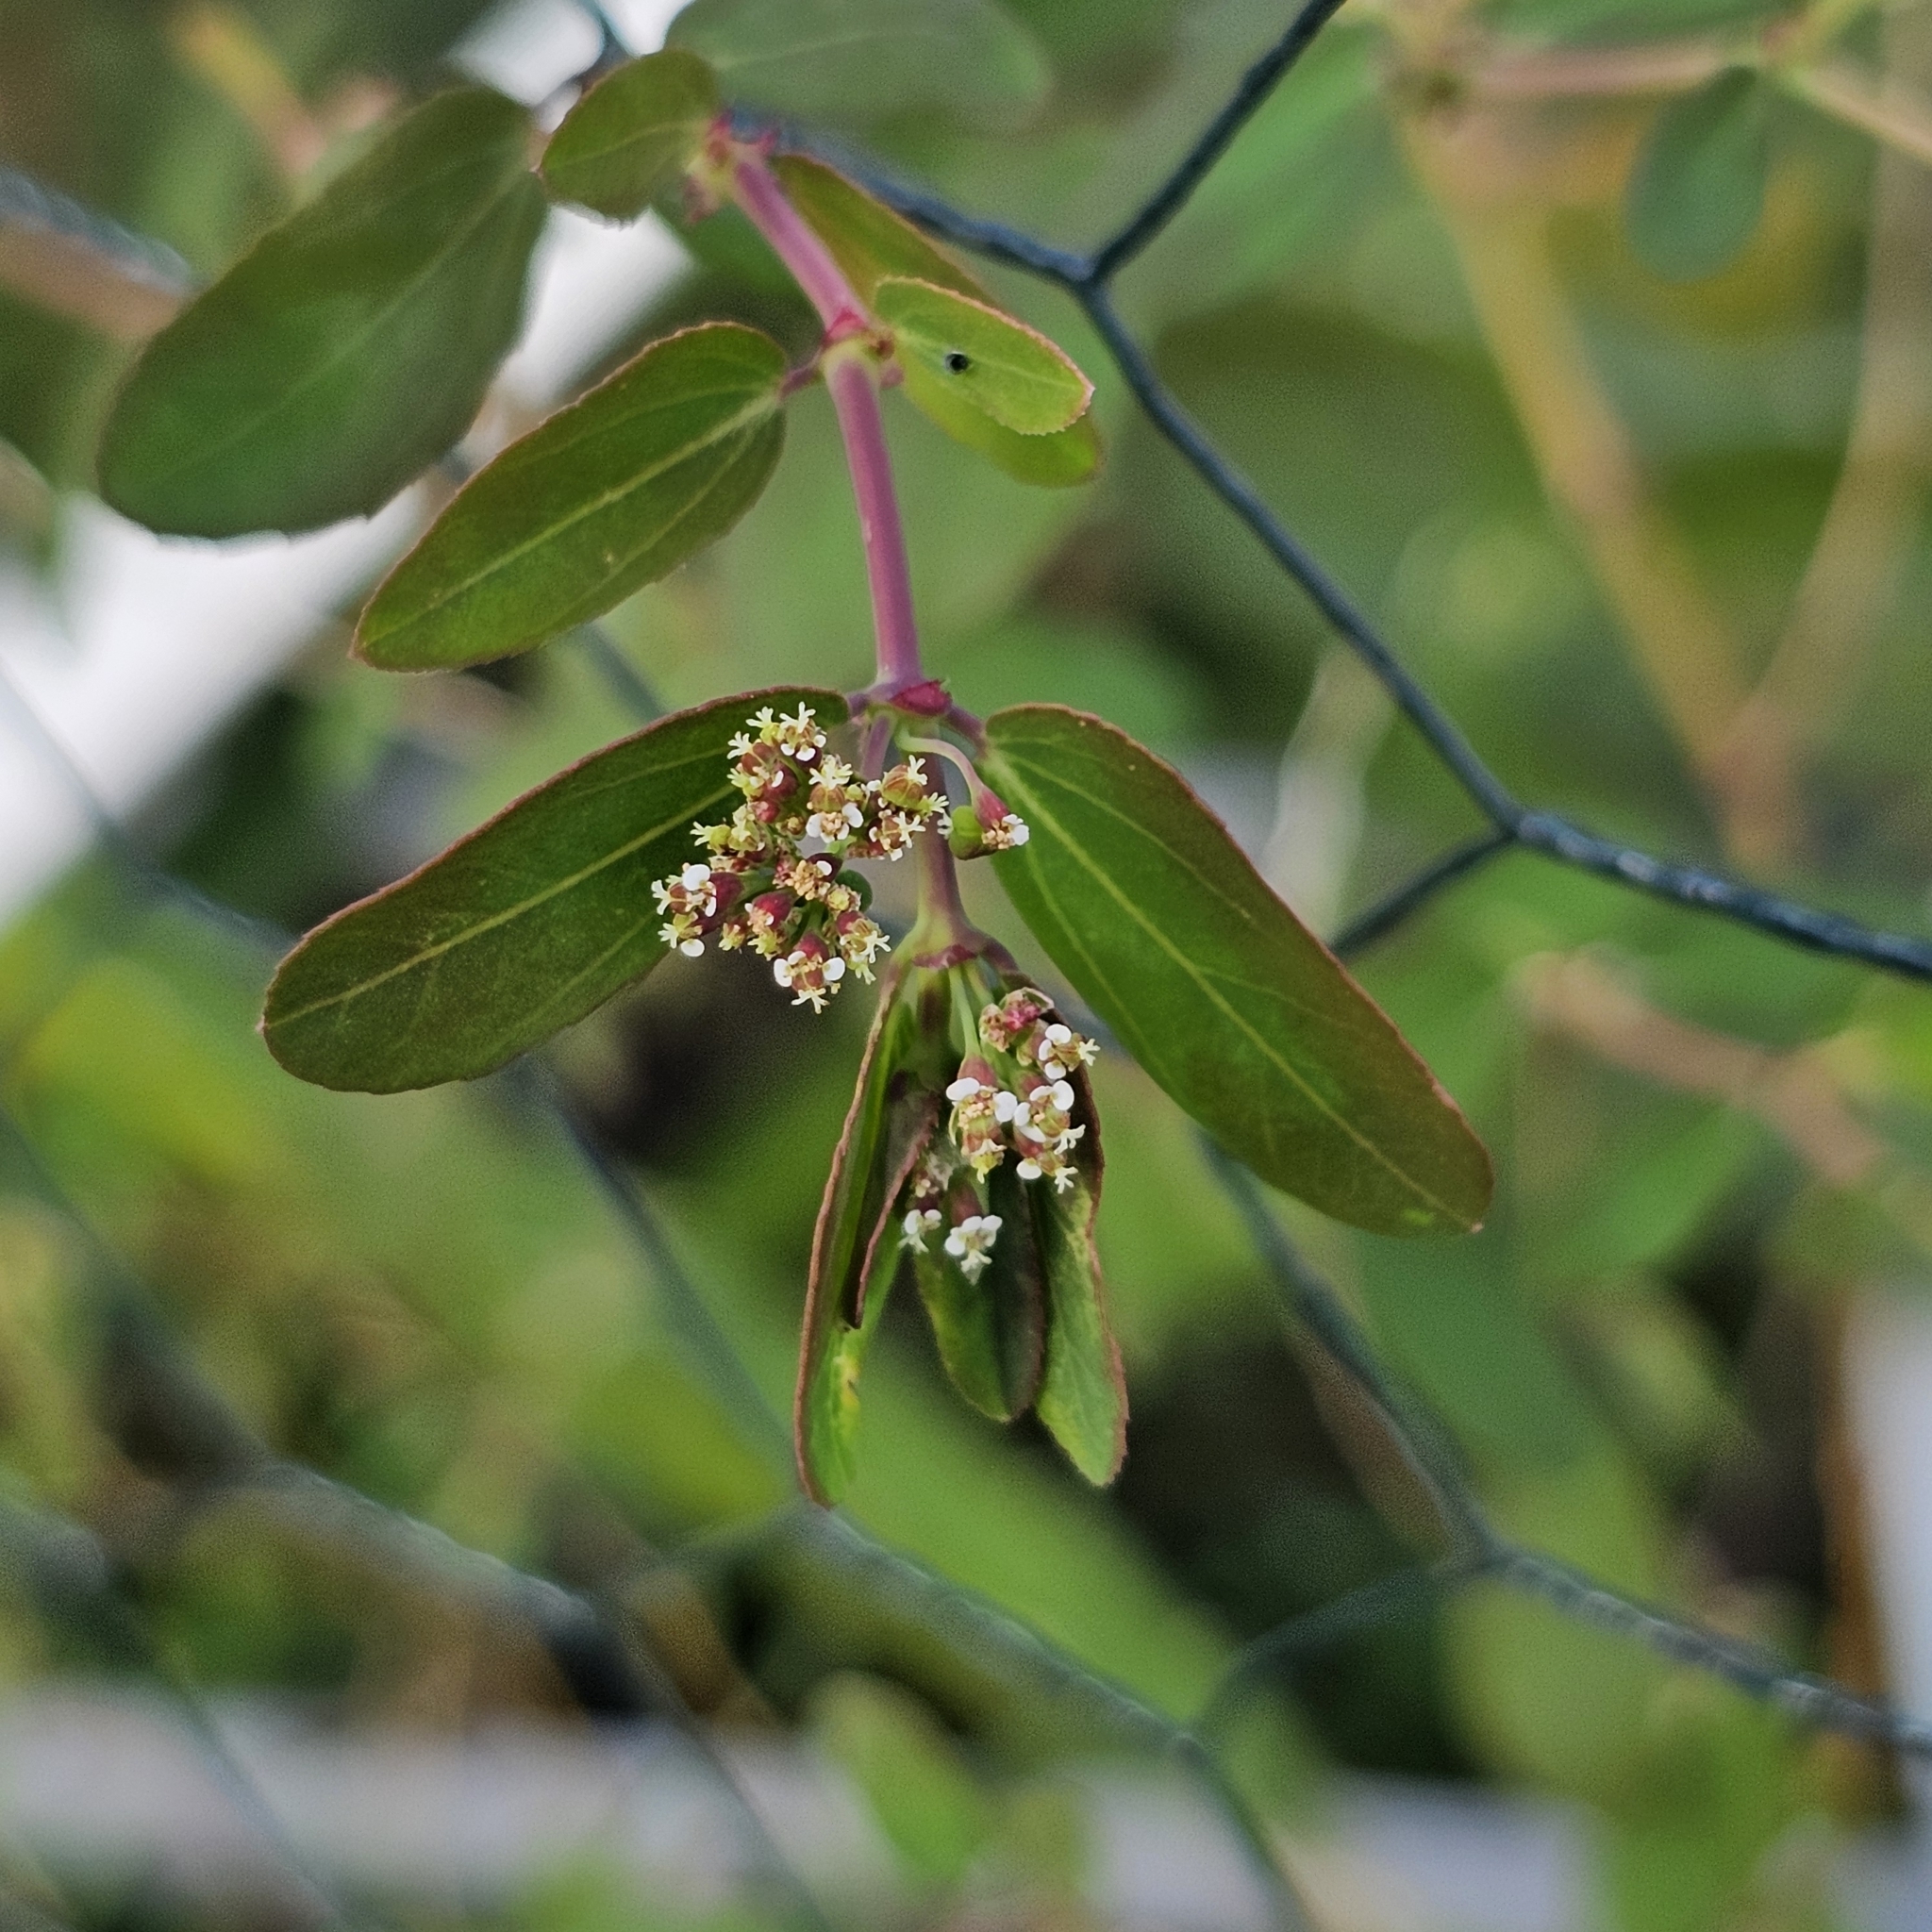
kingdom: Plantae
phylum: Tracheophyta
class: Magnoliopsida
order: Malpighiales
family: Euphorbiaceae
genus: Euphorbia
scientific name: Euphorbia hypericifolia
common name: Graceful sandmat
